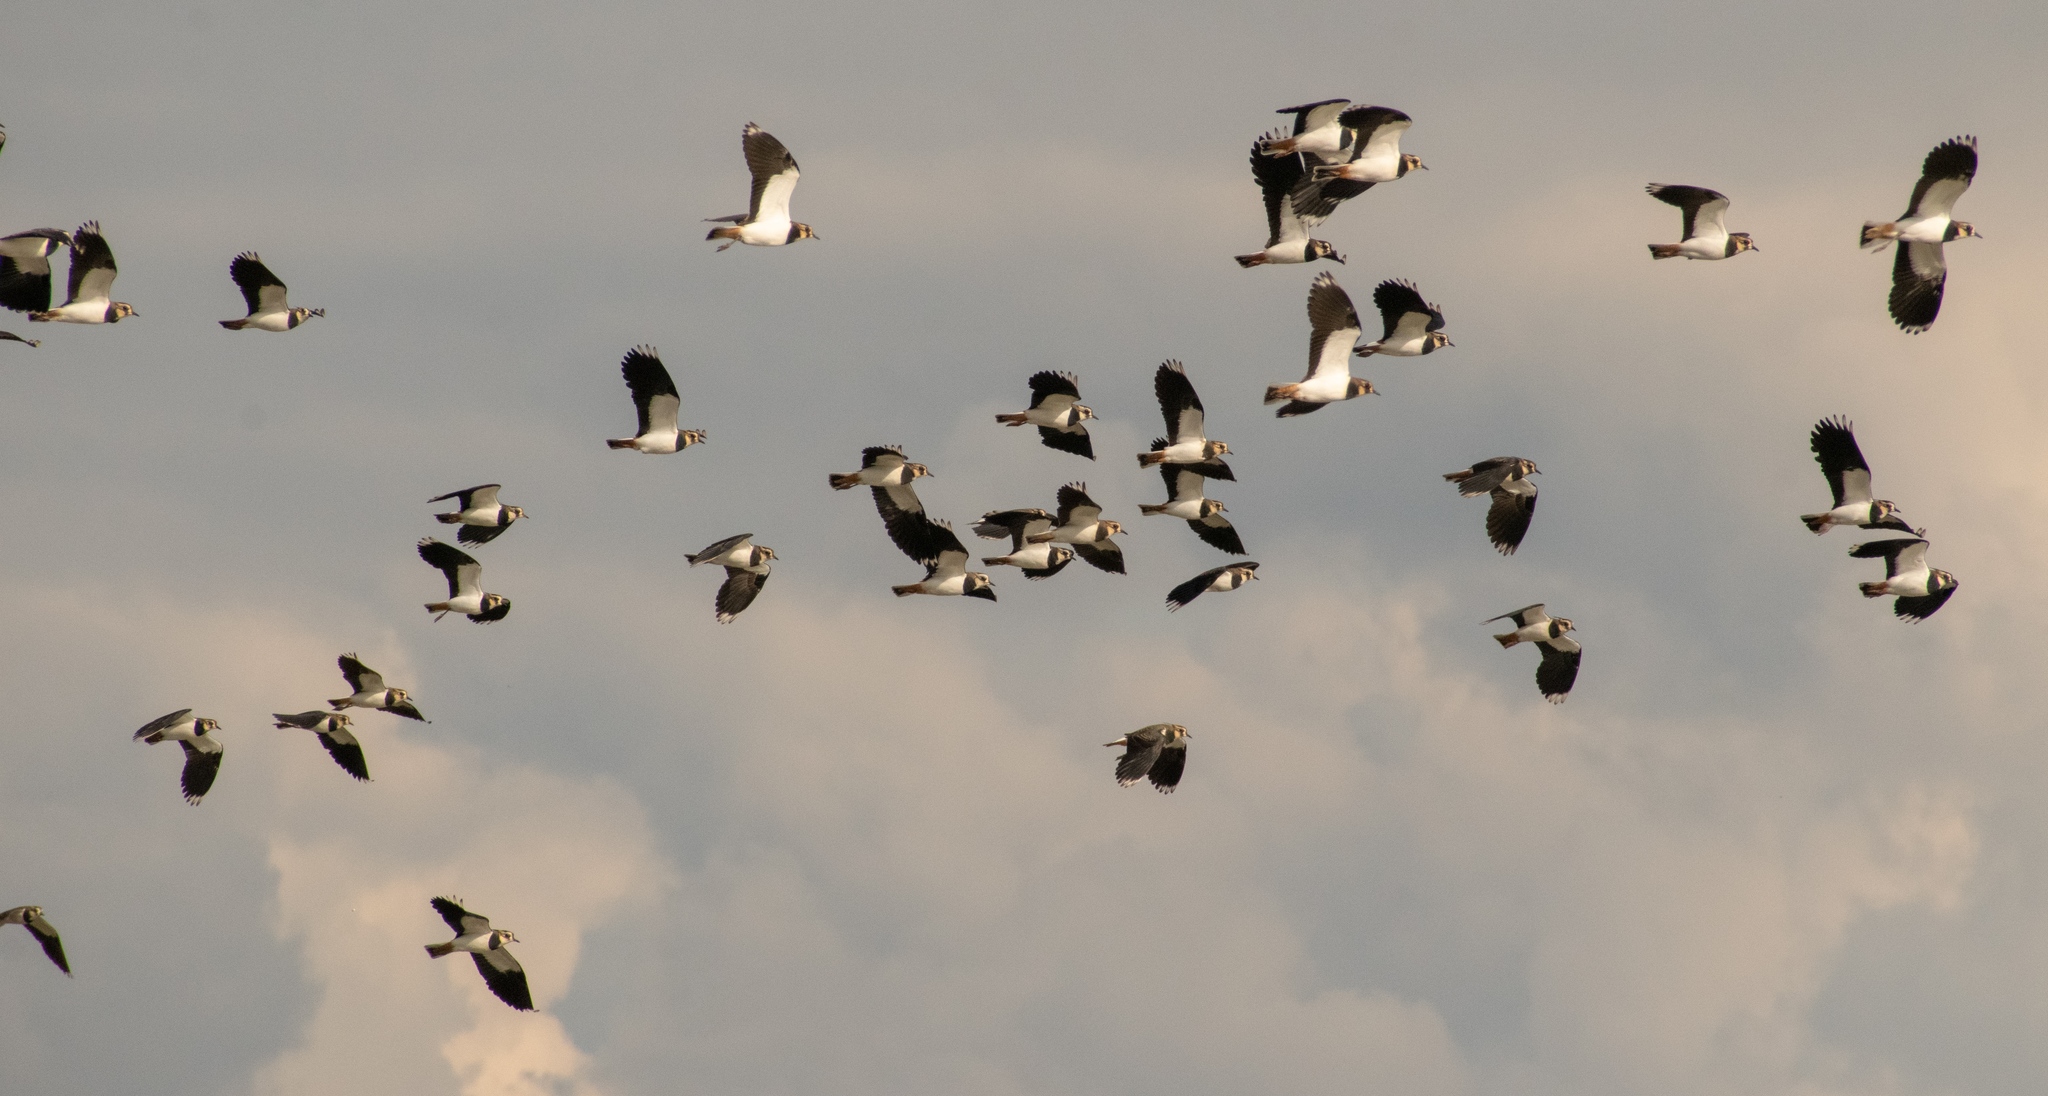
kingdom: Animalia
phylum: Chordata
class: Aves
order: Charadriiformes
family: Charadriidae
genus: Vanellus
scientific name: Vanellus vanellus
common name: Northern lapwing
